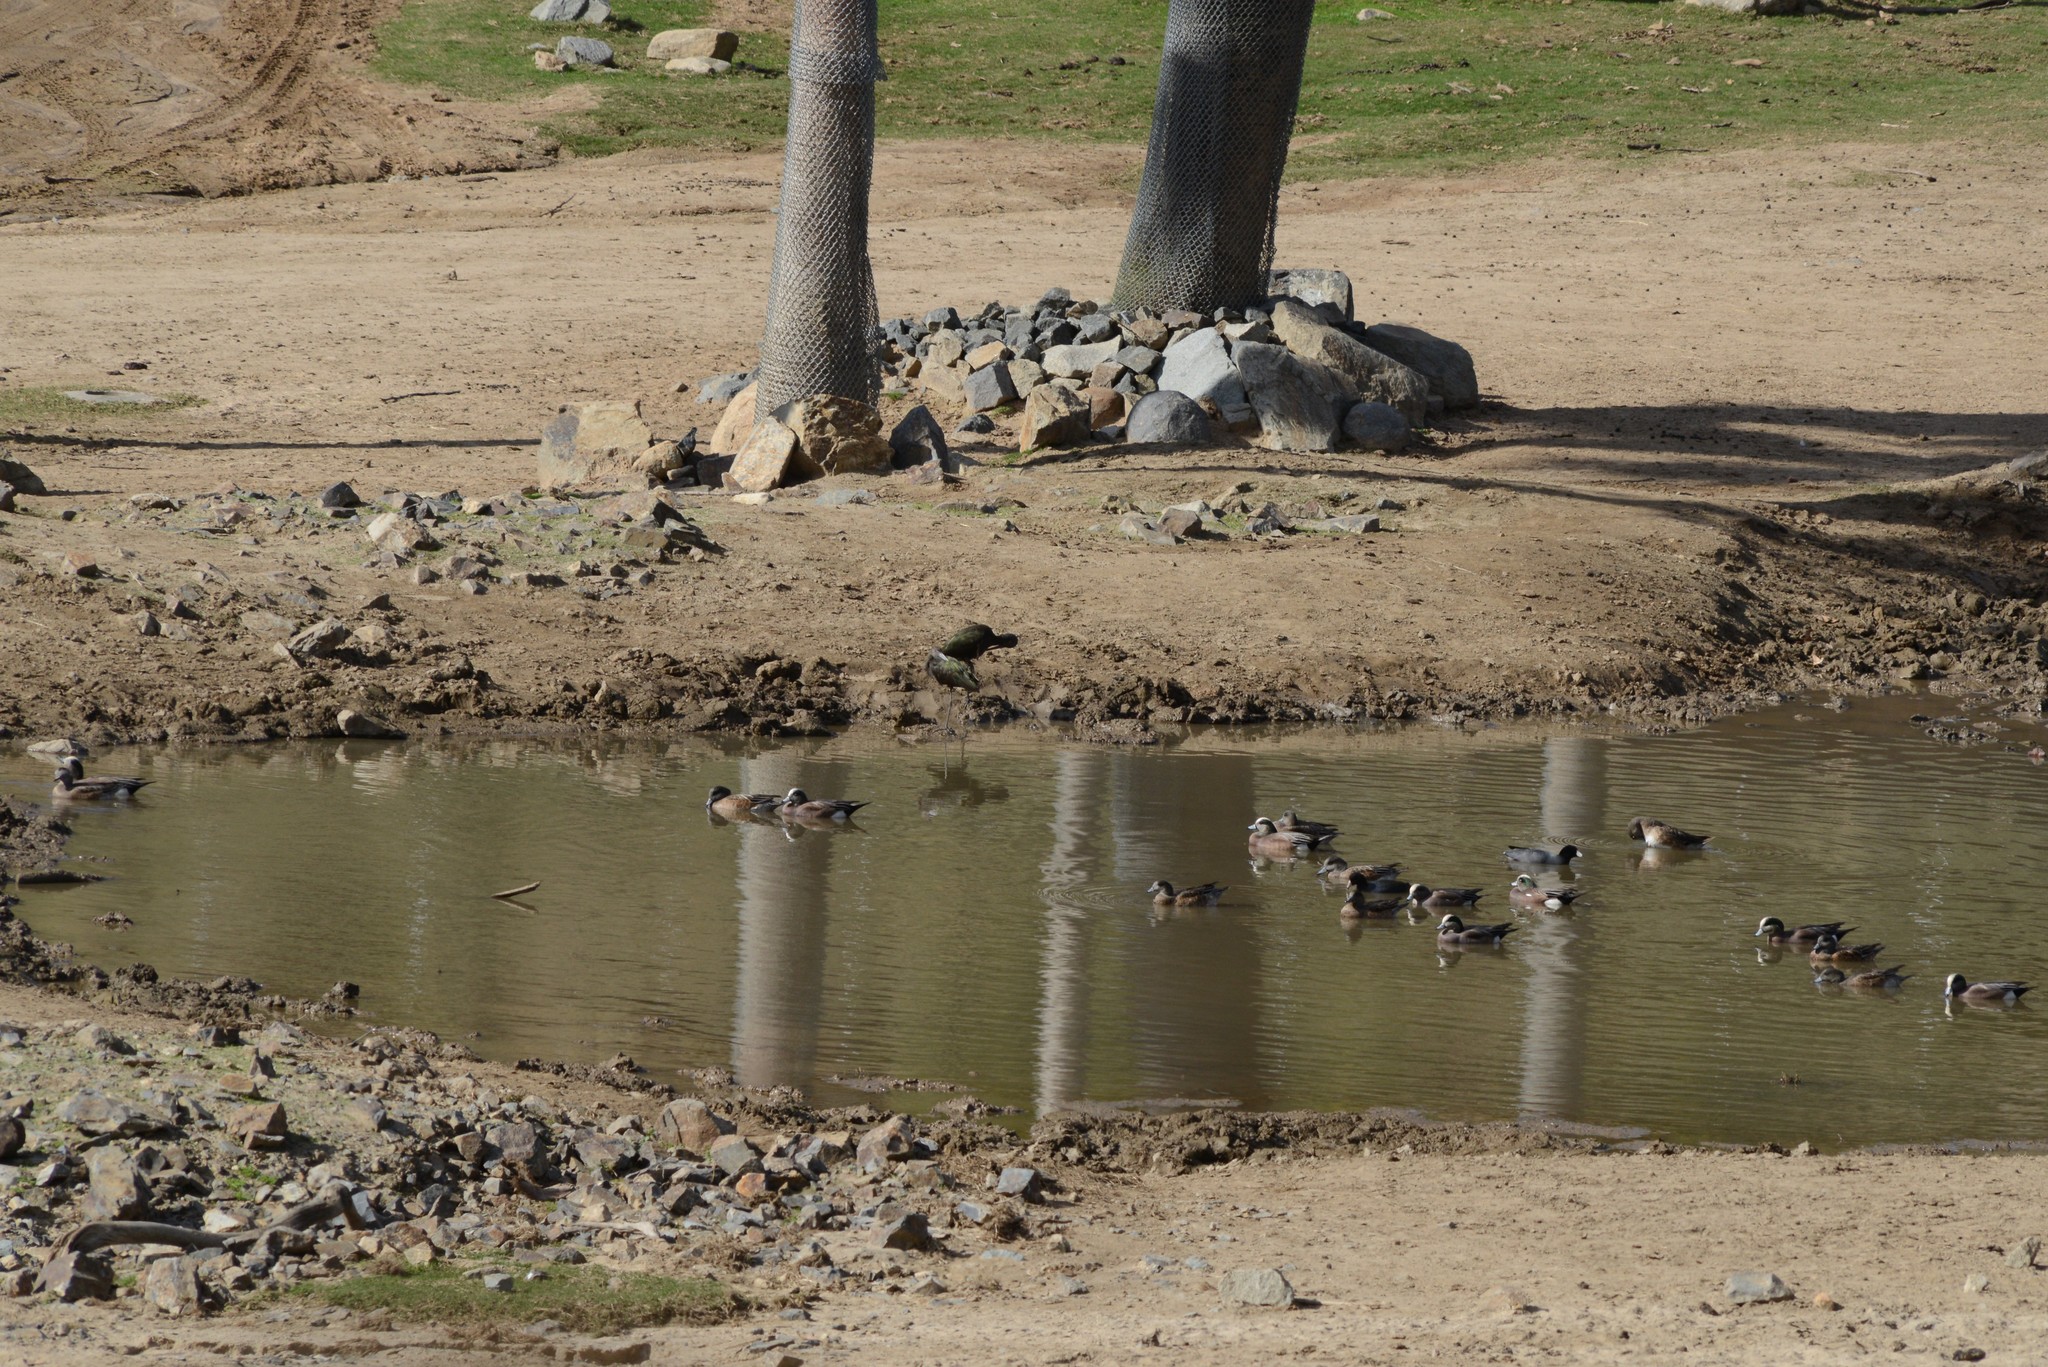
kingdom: Animalia
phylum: Chordata
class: Aves
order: Anseriformes
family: Anatidae
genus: Mareca
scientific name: Mareca americana
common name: American wigeon
